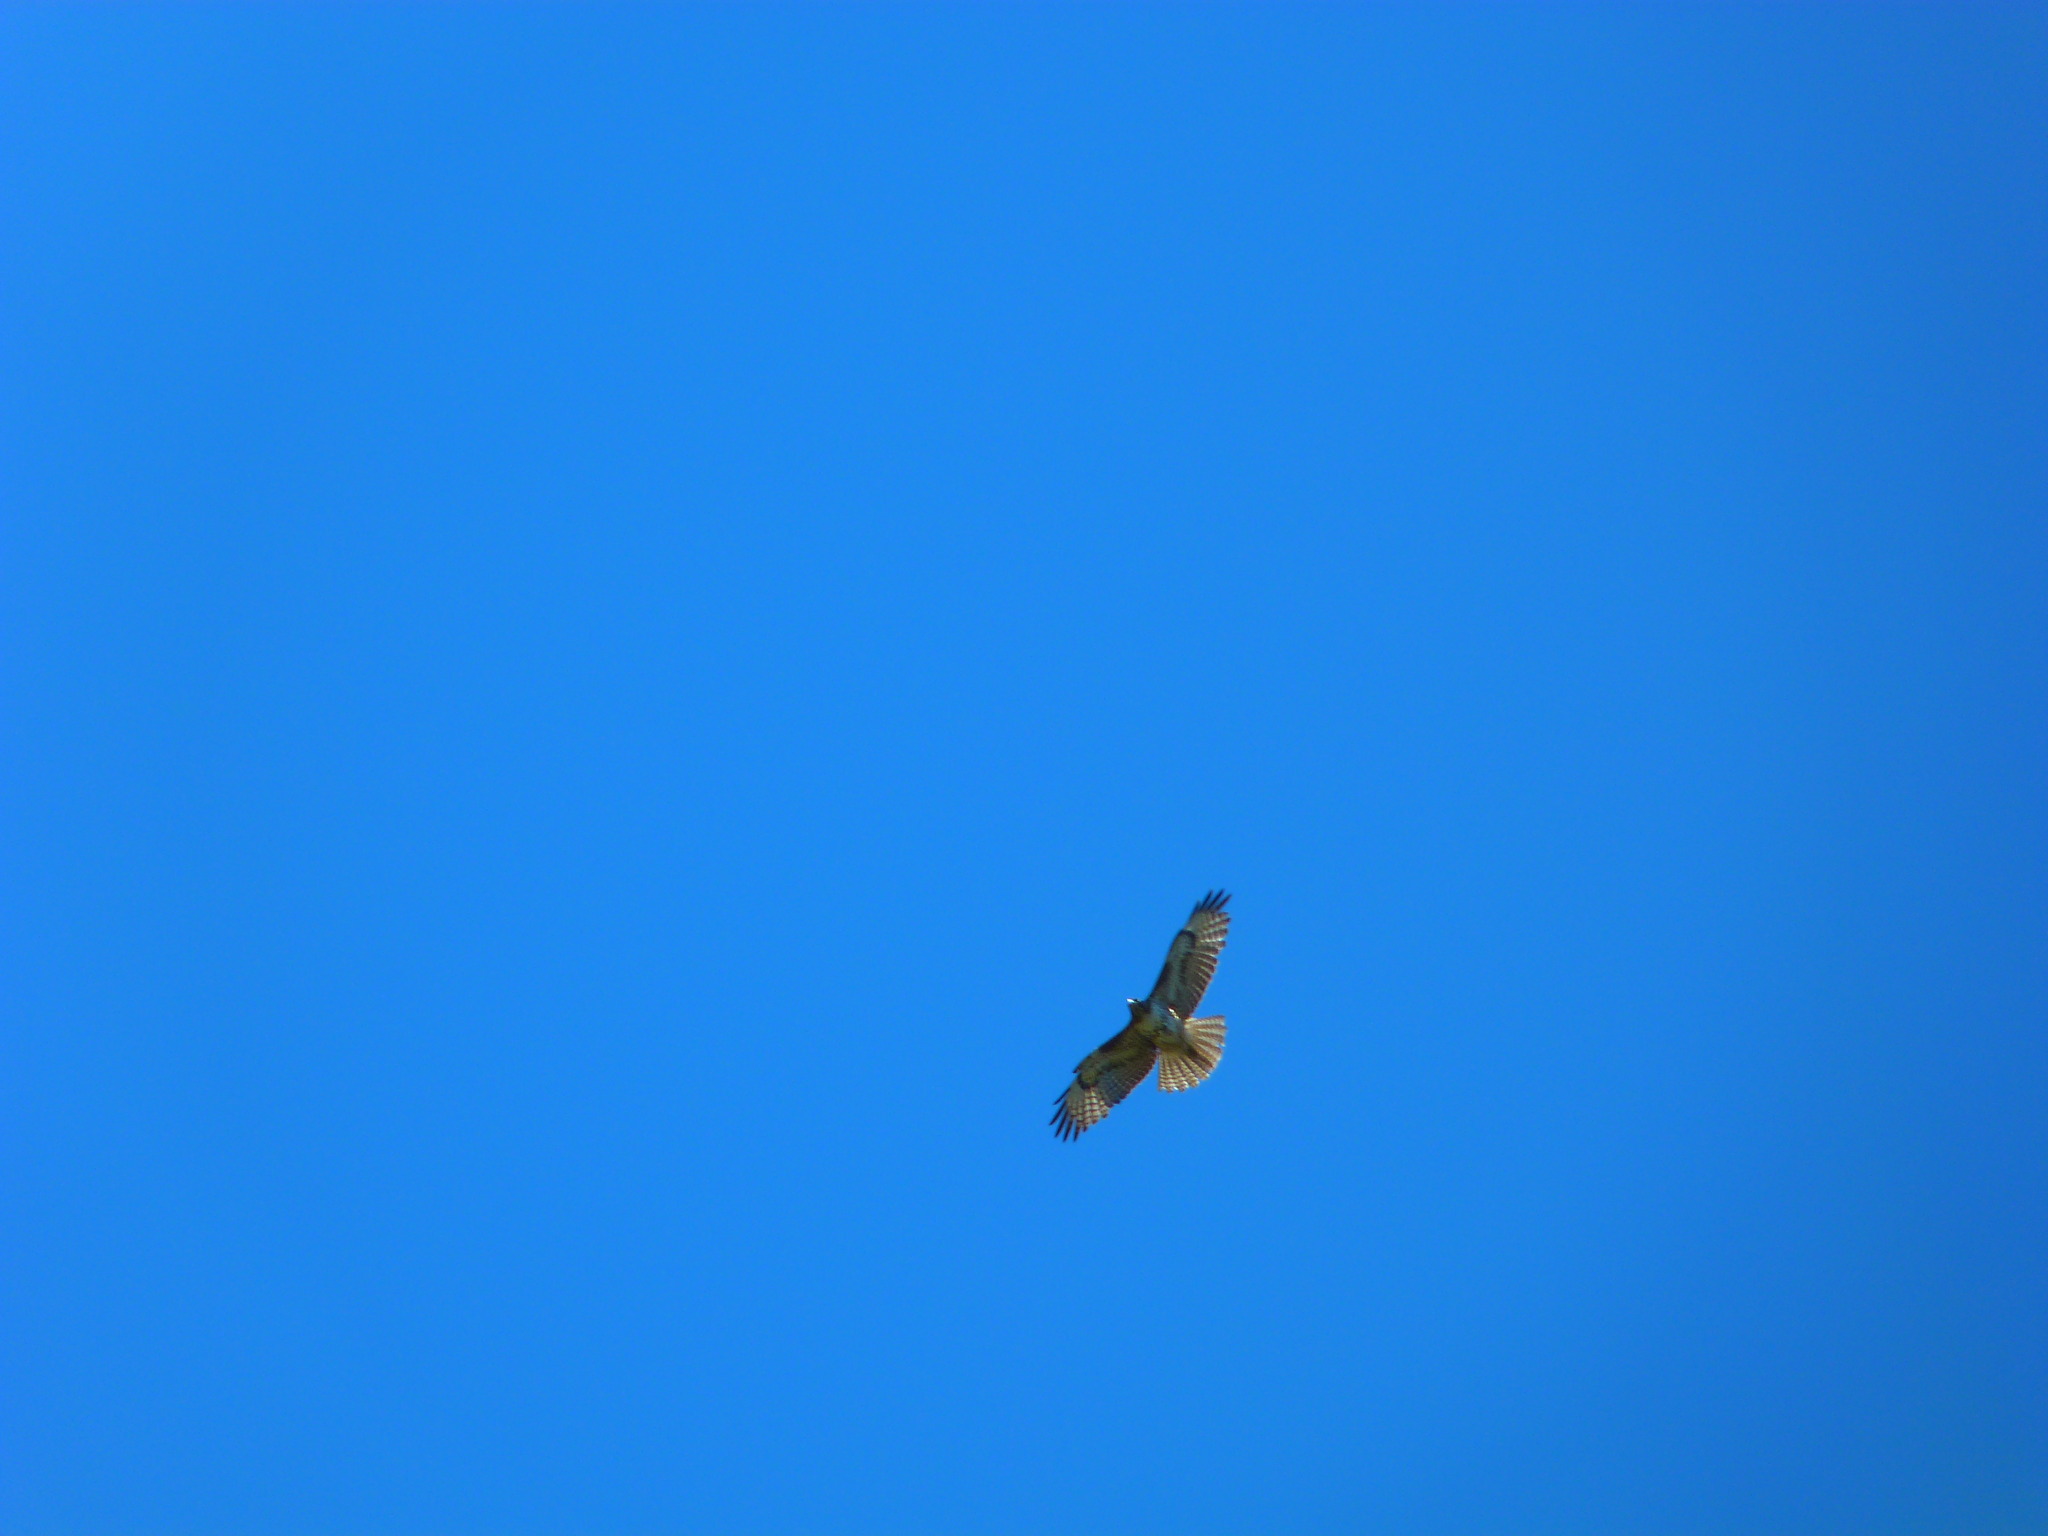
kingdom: Animalia
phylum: Chordata
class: Aves
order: Accipitriformes
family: Accipitridae
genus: Buteo
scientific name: Buteo jamaicensis
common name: Red-tailed hawk
